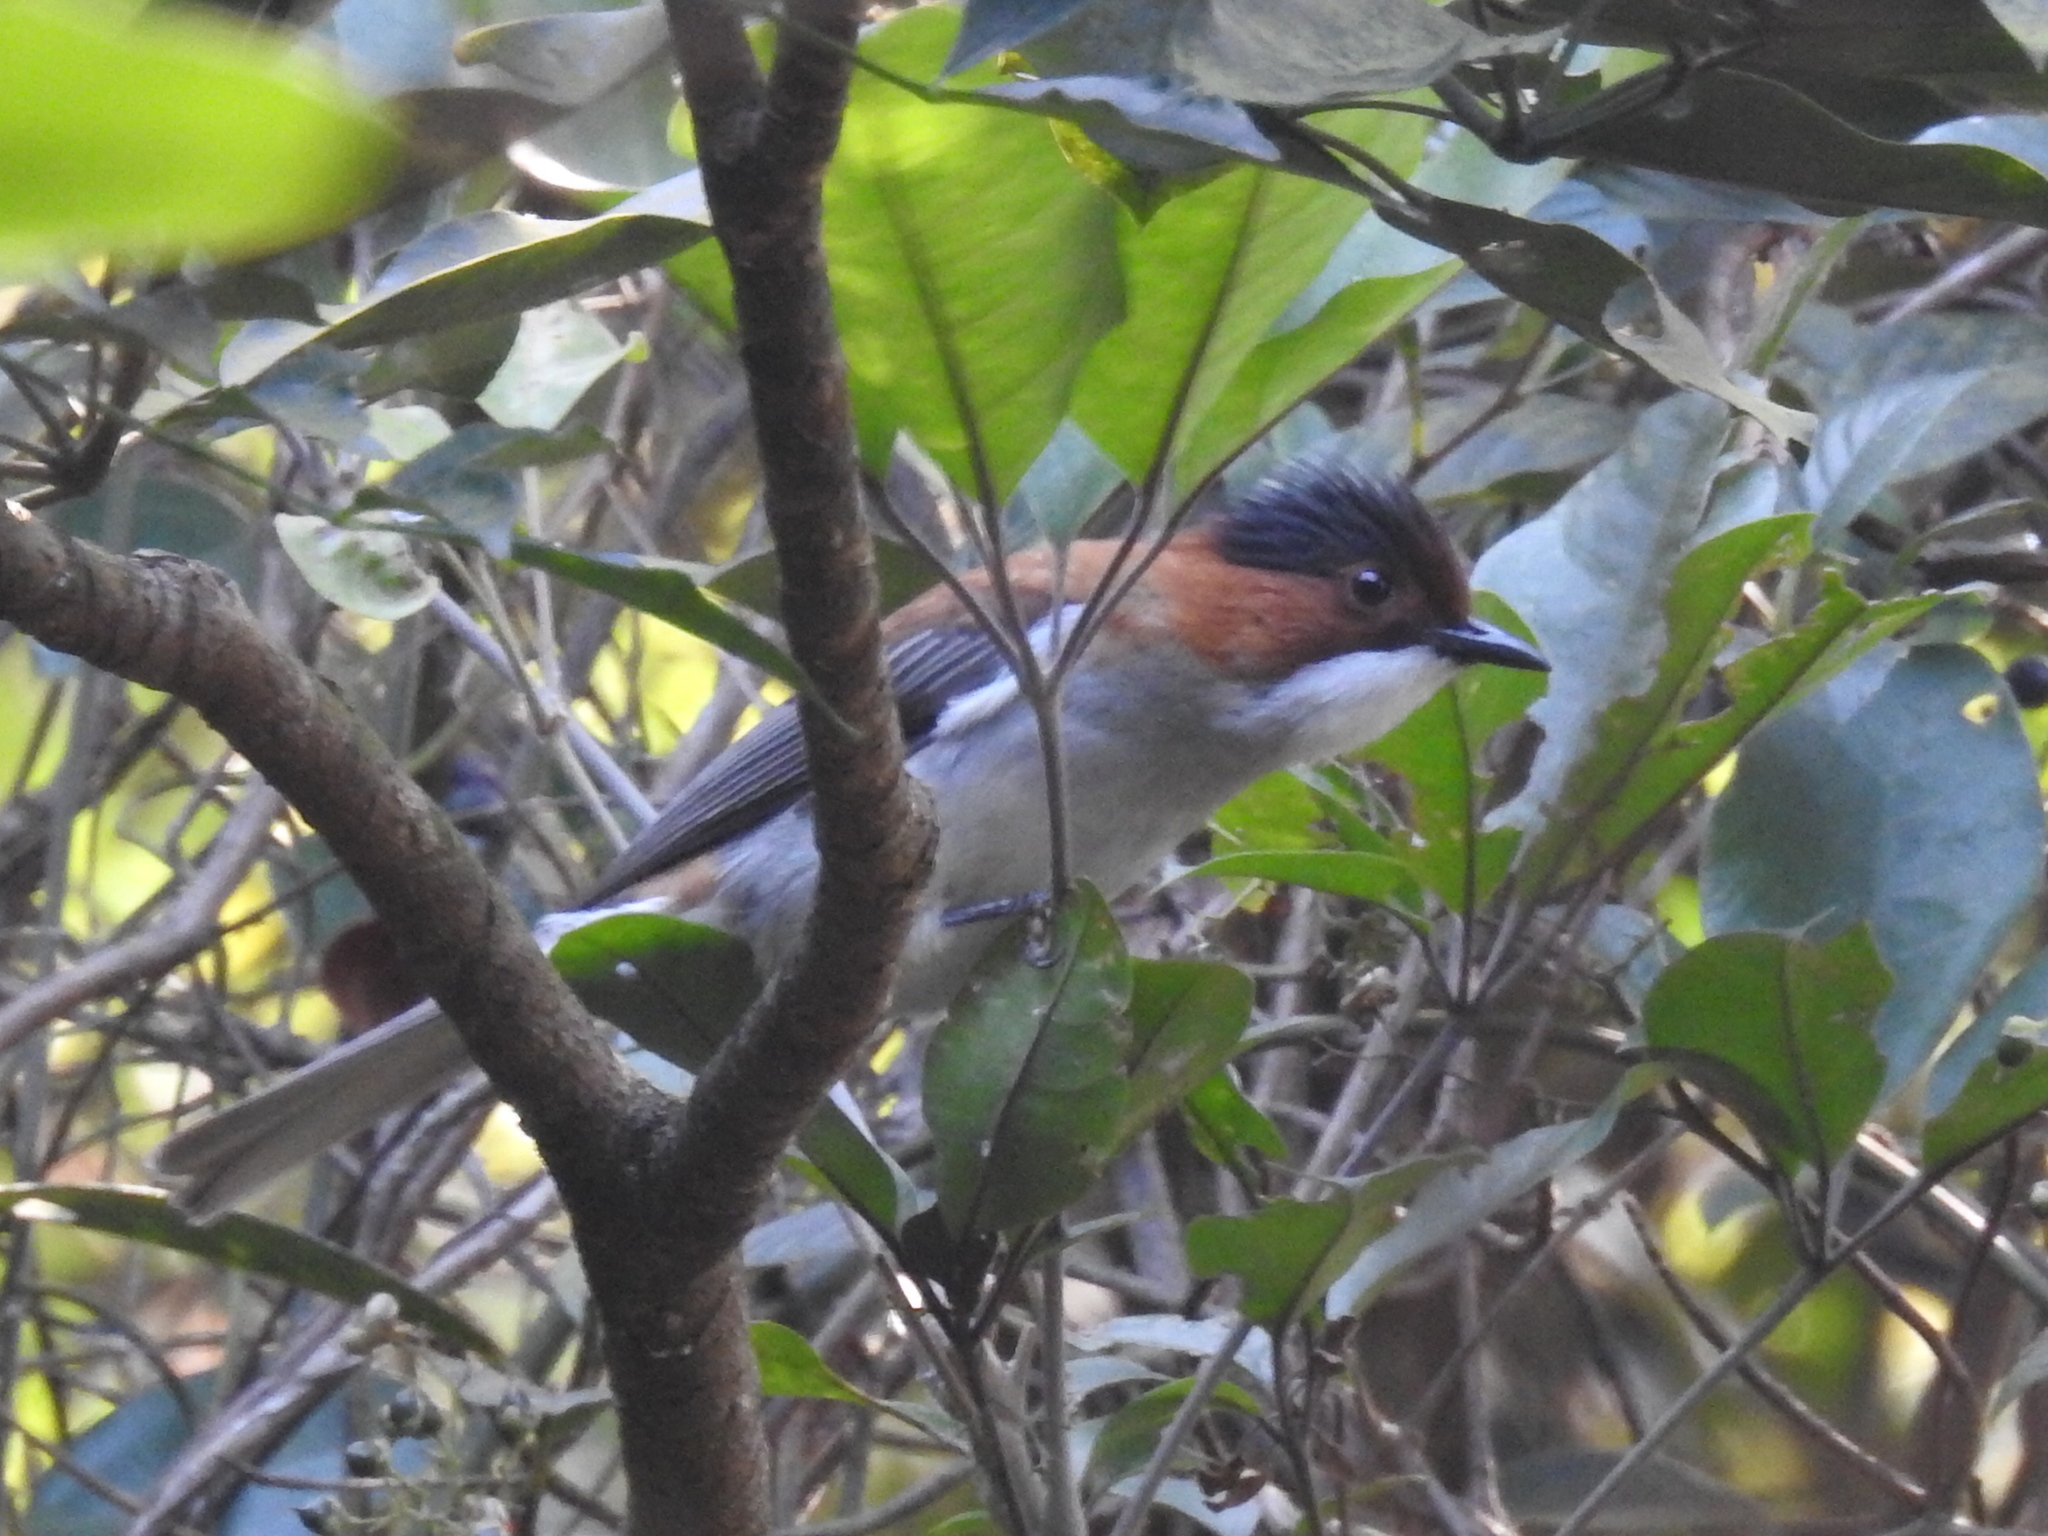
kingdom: Animalia
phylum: Chordata
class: Aves
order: Passeriformes
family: Pycnonotidae
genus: Hemixos
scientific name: Hemixos castanonotus
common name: Chestnut bulbul
